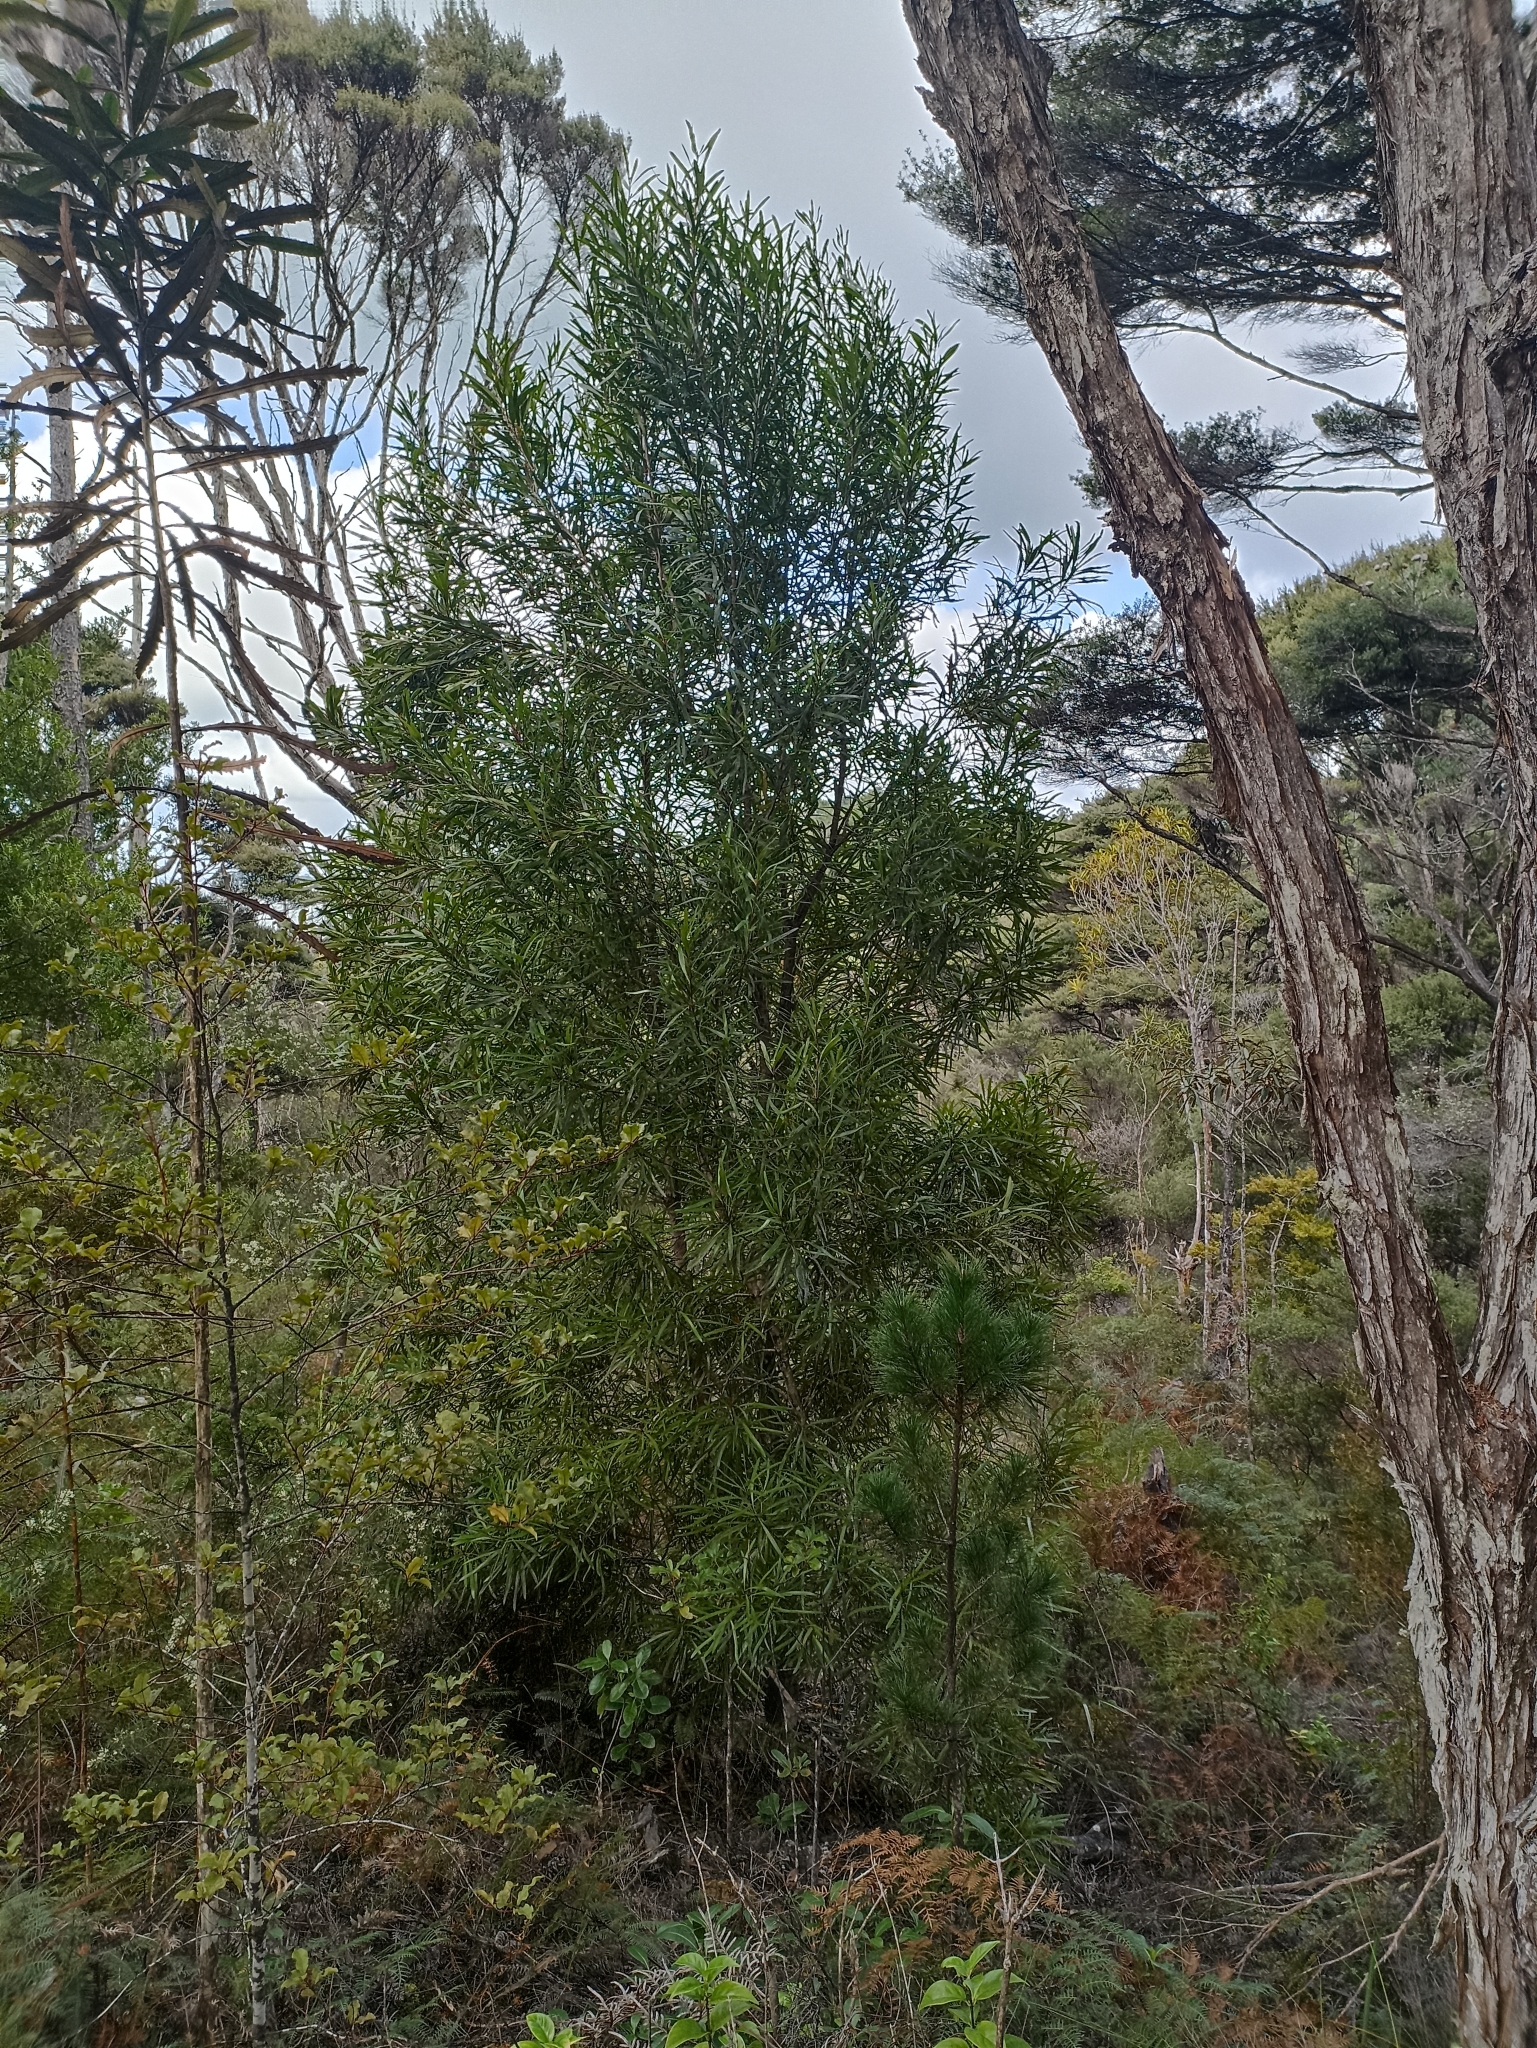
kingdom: Plantae
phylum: Tracheophyta
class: Magnoliopsida
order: Proteales
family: Proteaceae
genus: Toronia
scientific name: Toronia toru
